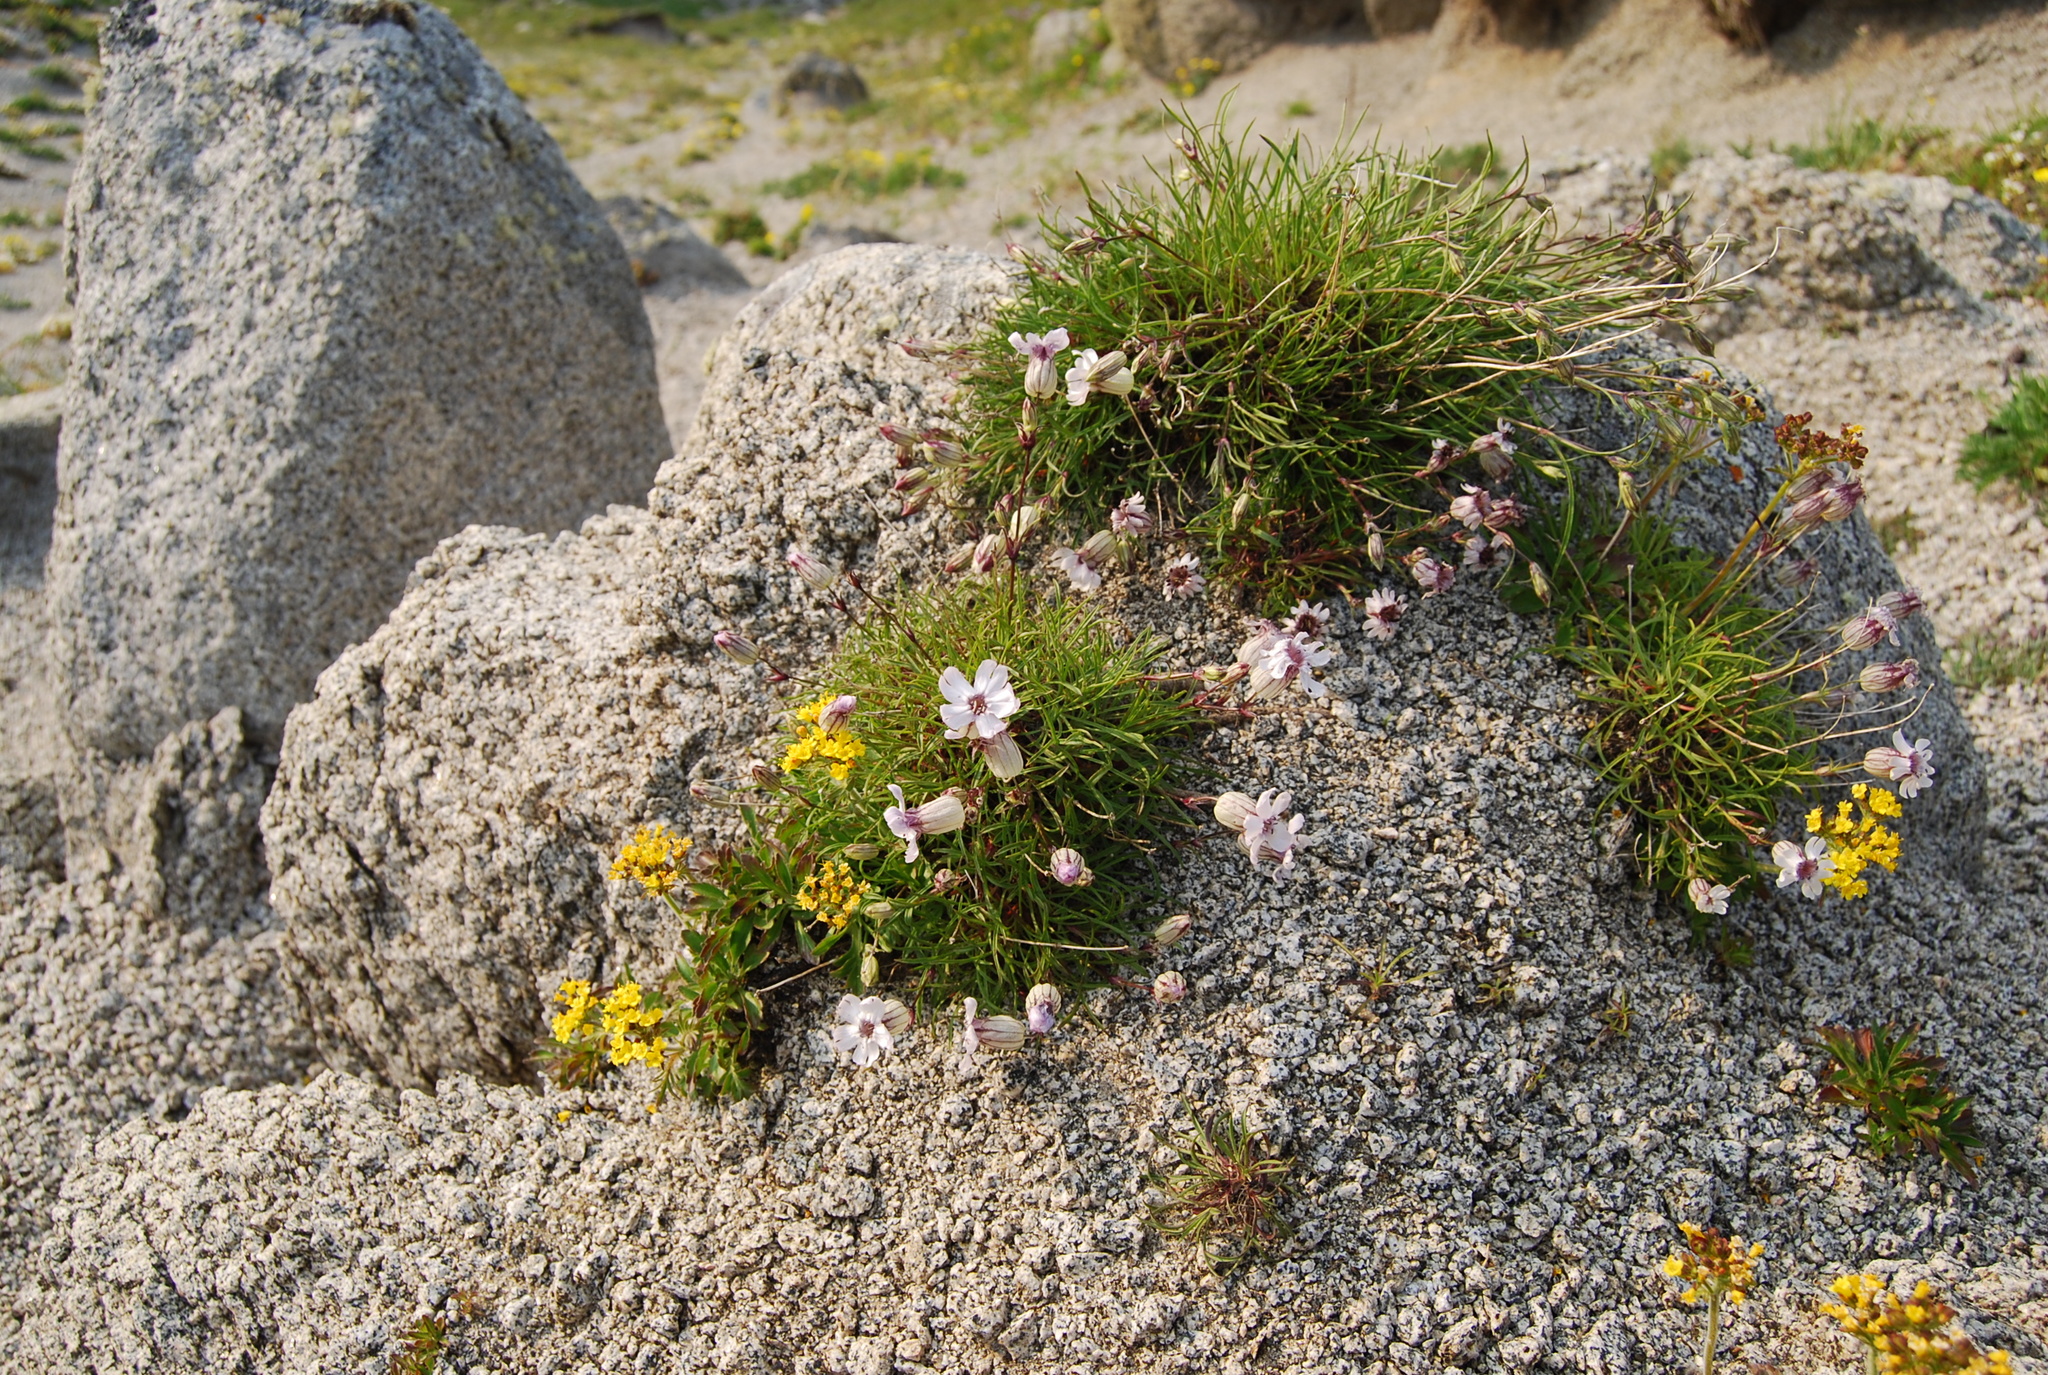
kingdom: Plantae
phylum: Tracheophyta
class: Magnoliopsida
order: Caryophyllales
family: Caryophyllaceae
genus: Silene
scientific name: Silene stenophylla
